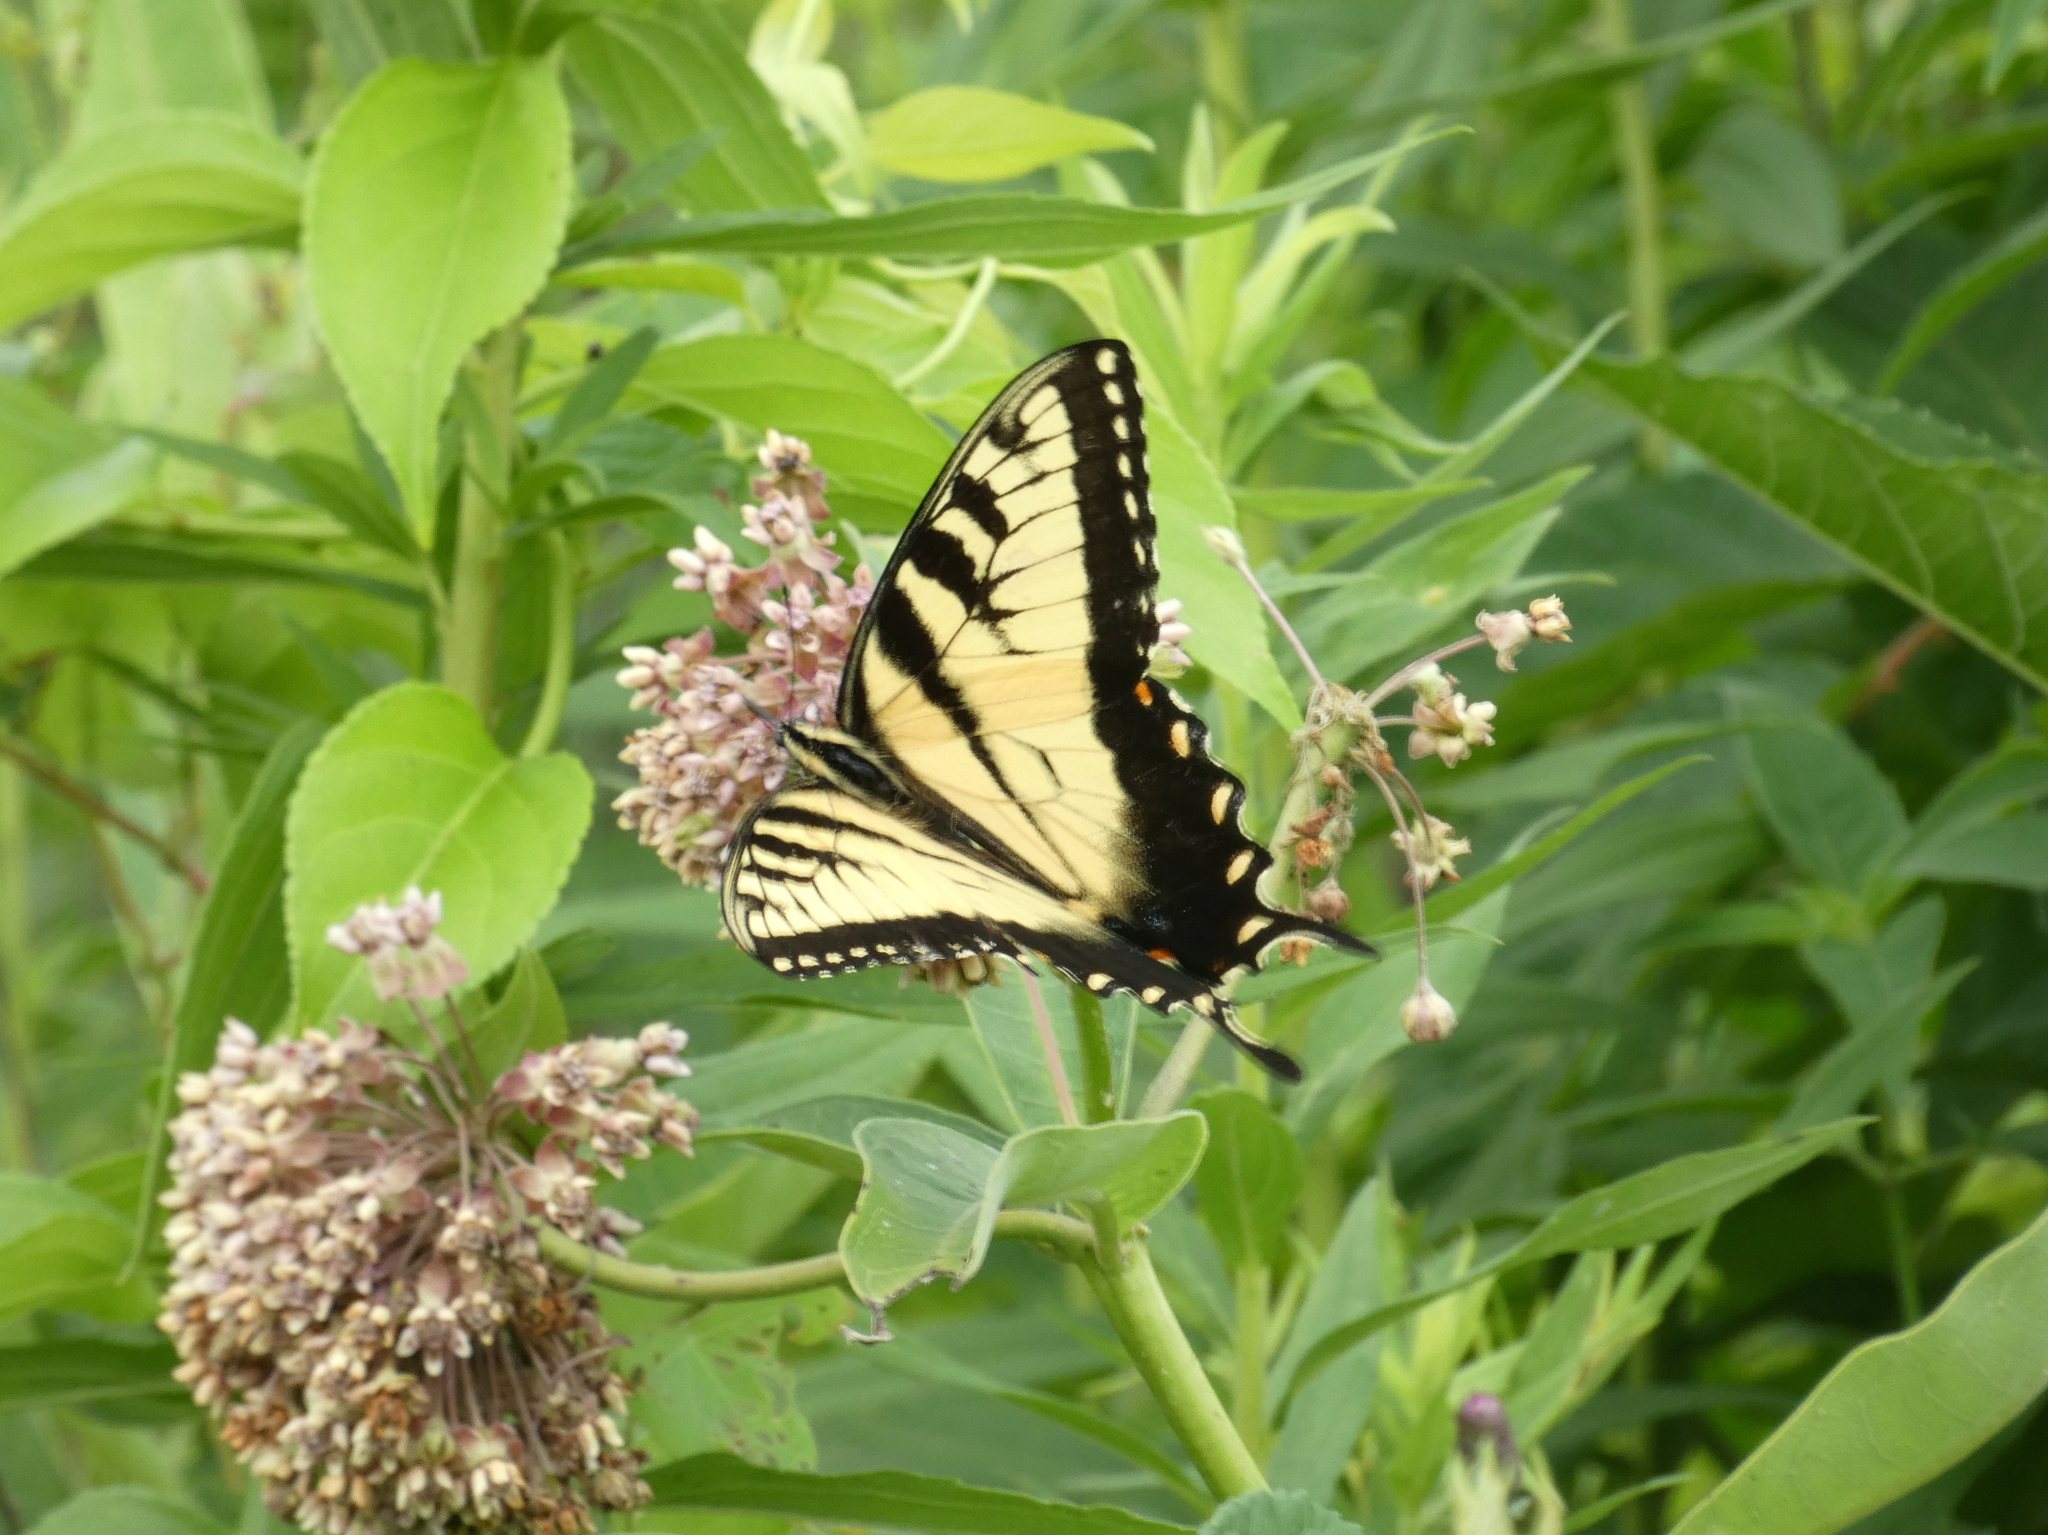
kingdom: Animalia
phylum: Arthropoda
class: Insecta
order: Lepidoptera
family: Papilionidae
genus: Papilio
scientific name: Papilio glaucus
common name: Tiger swallowtail
